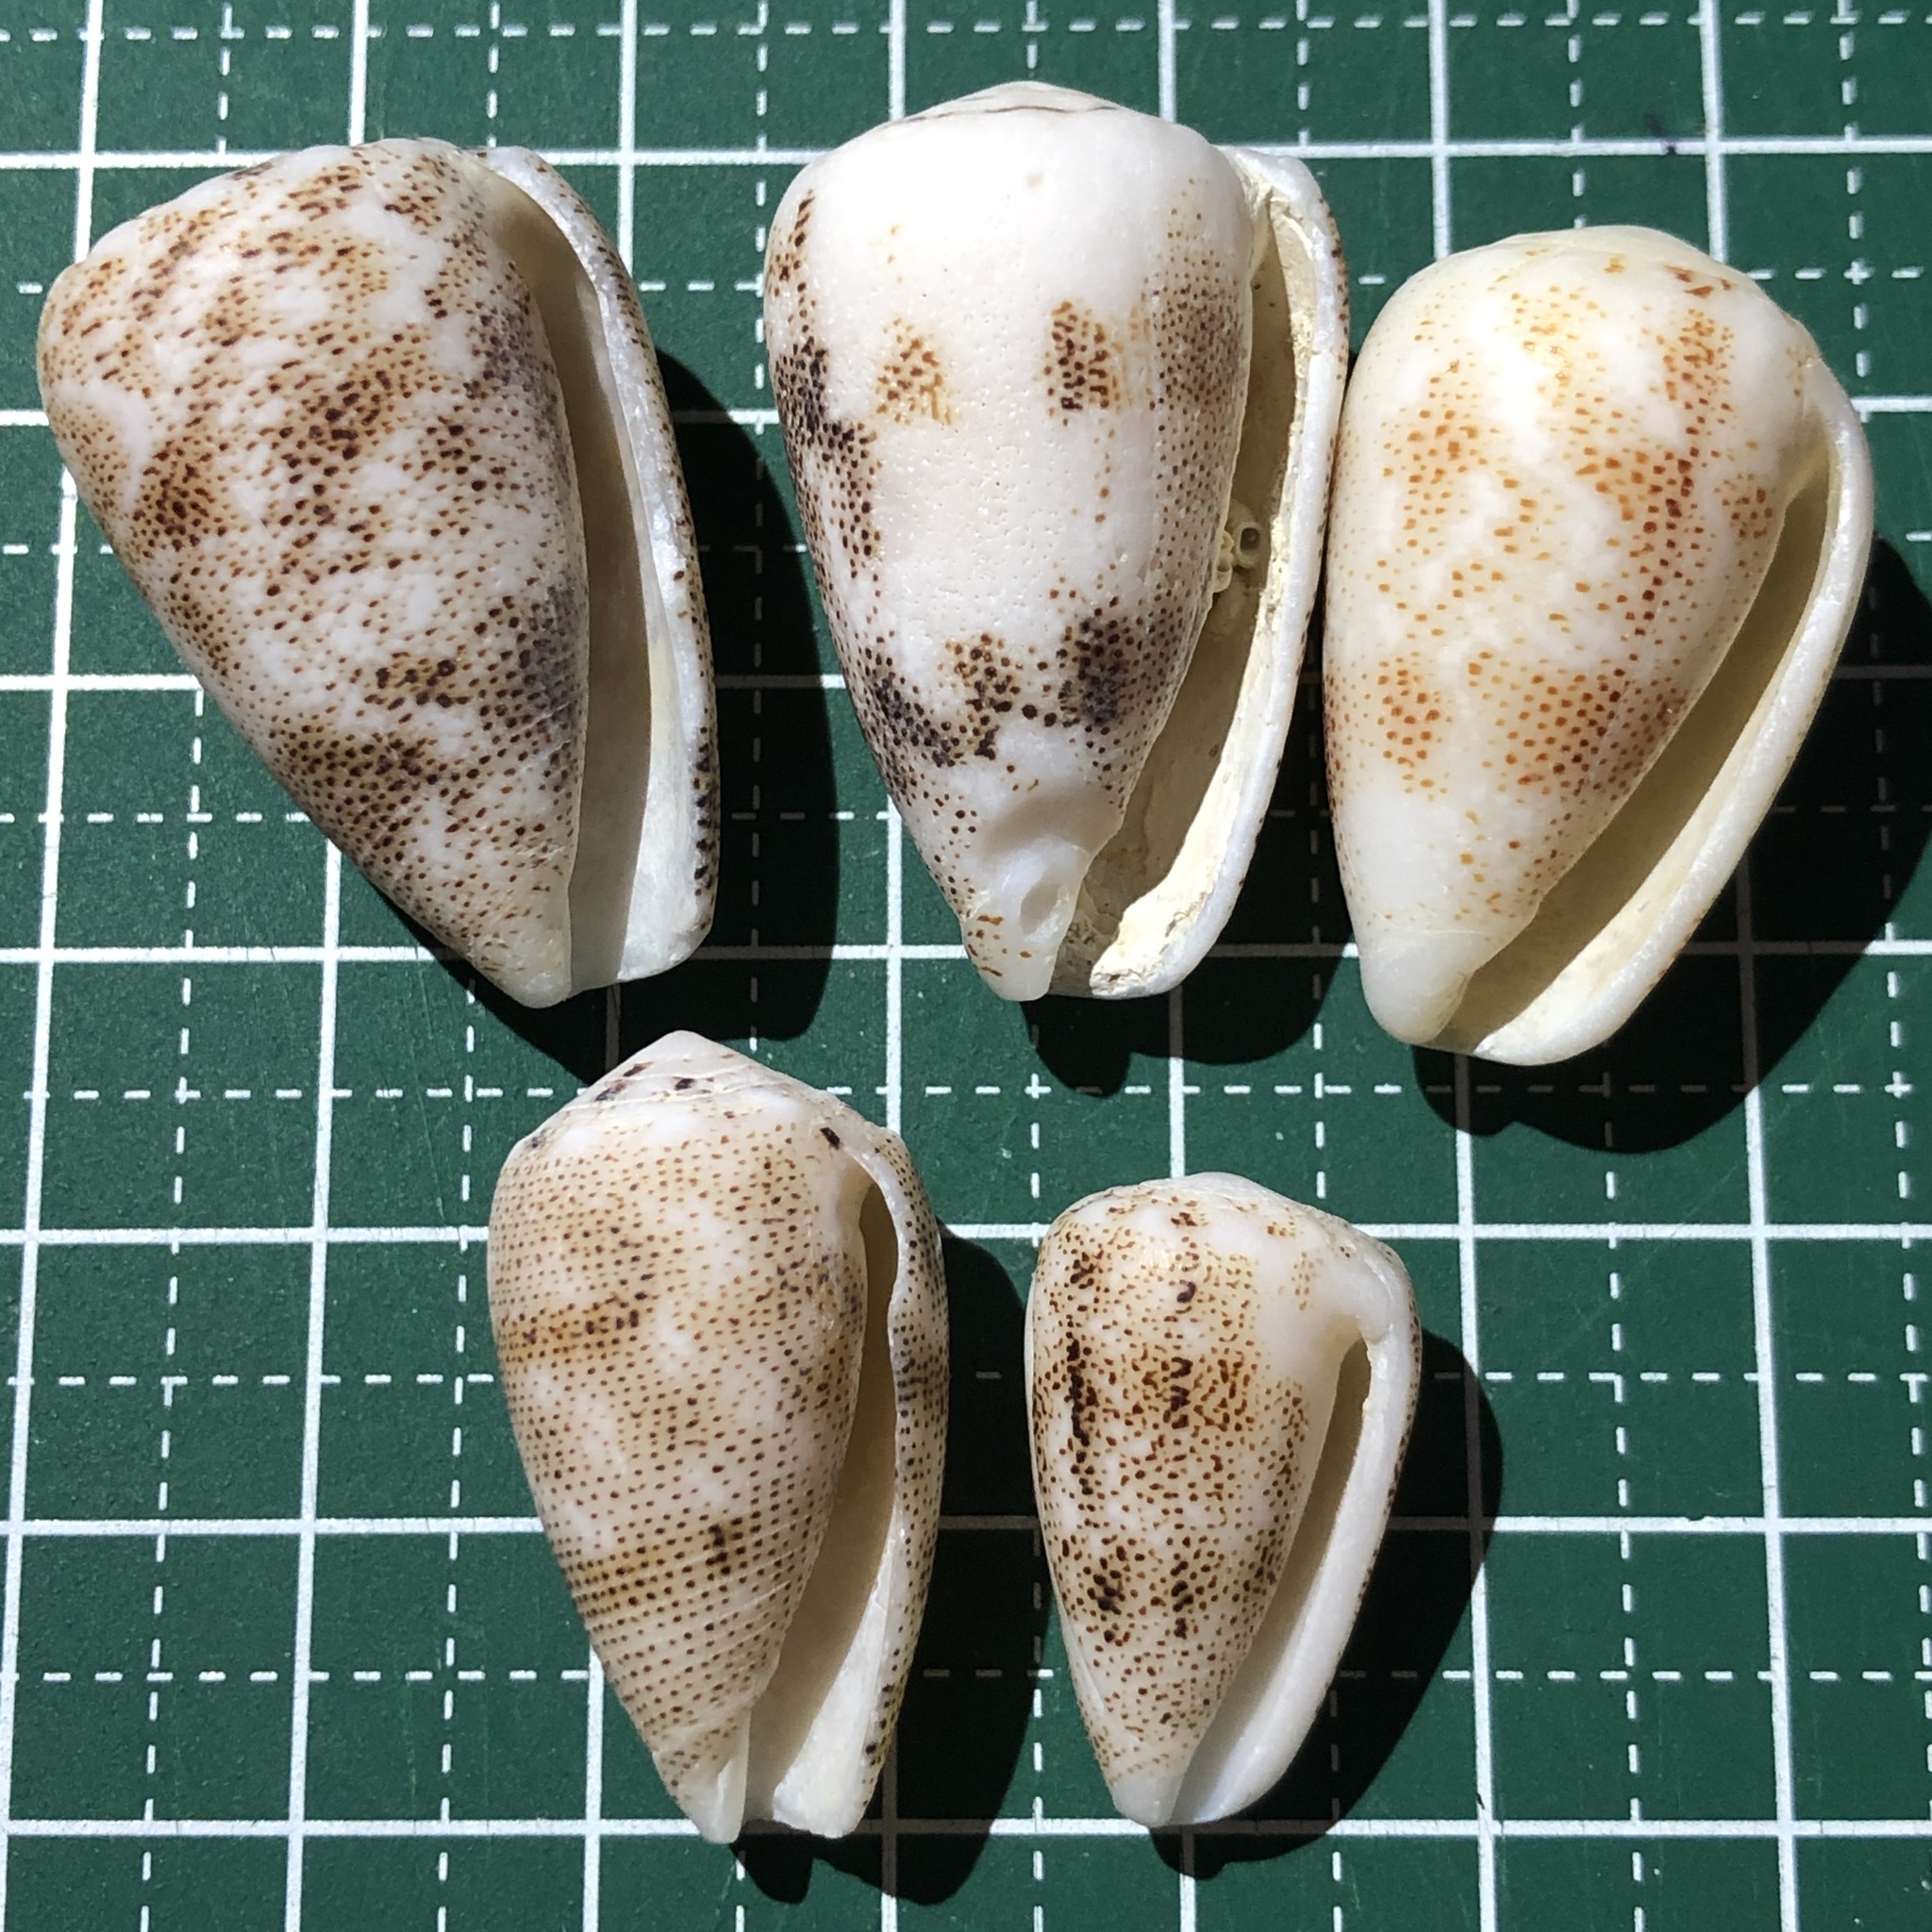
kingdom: Animalia
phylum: Mollusca
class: Gastropoda
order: Neogastropoda
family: Conidae
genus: Conus
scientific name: Conus arenatus
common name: Sand-dusted cone
